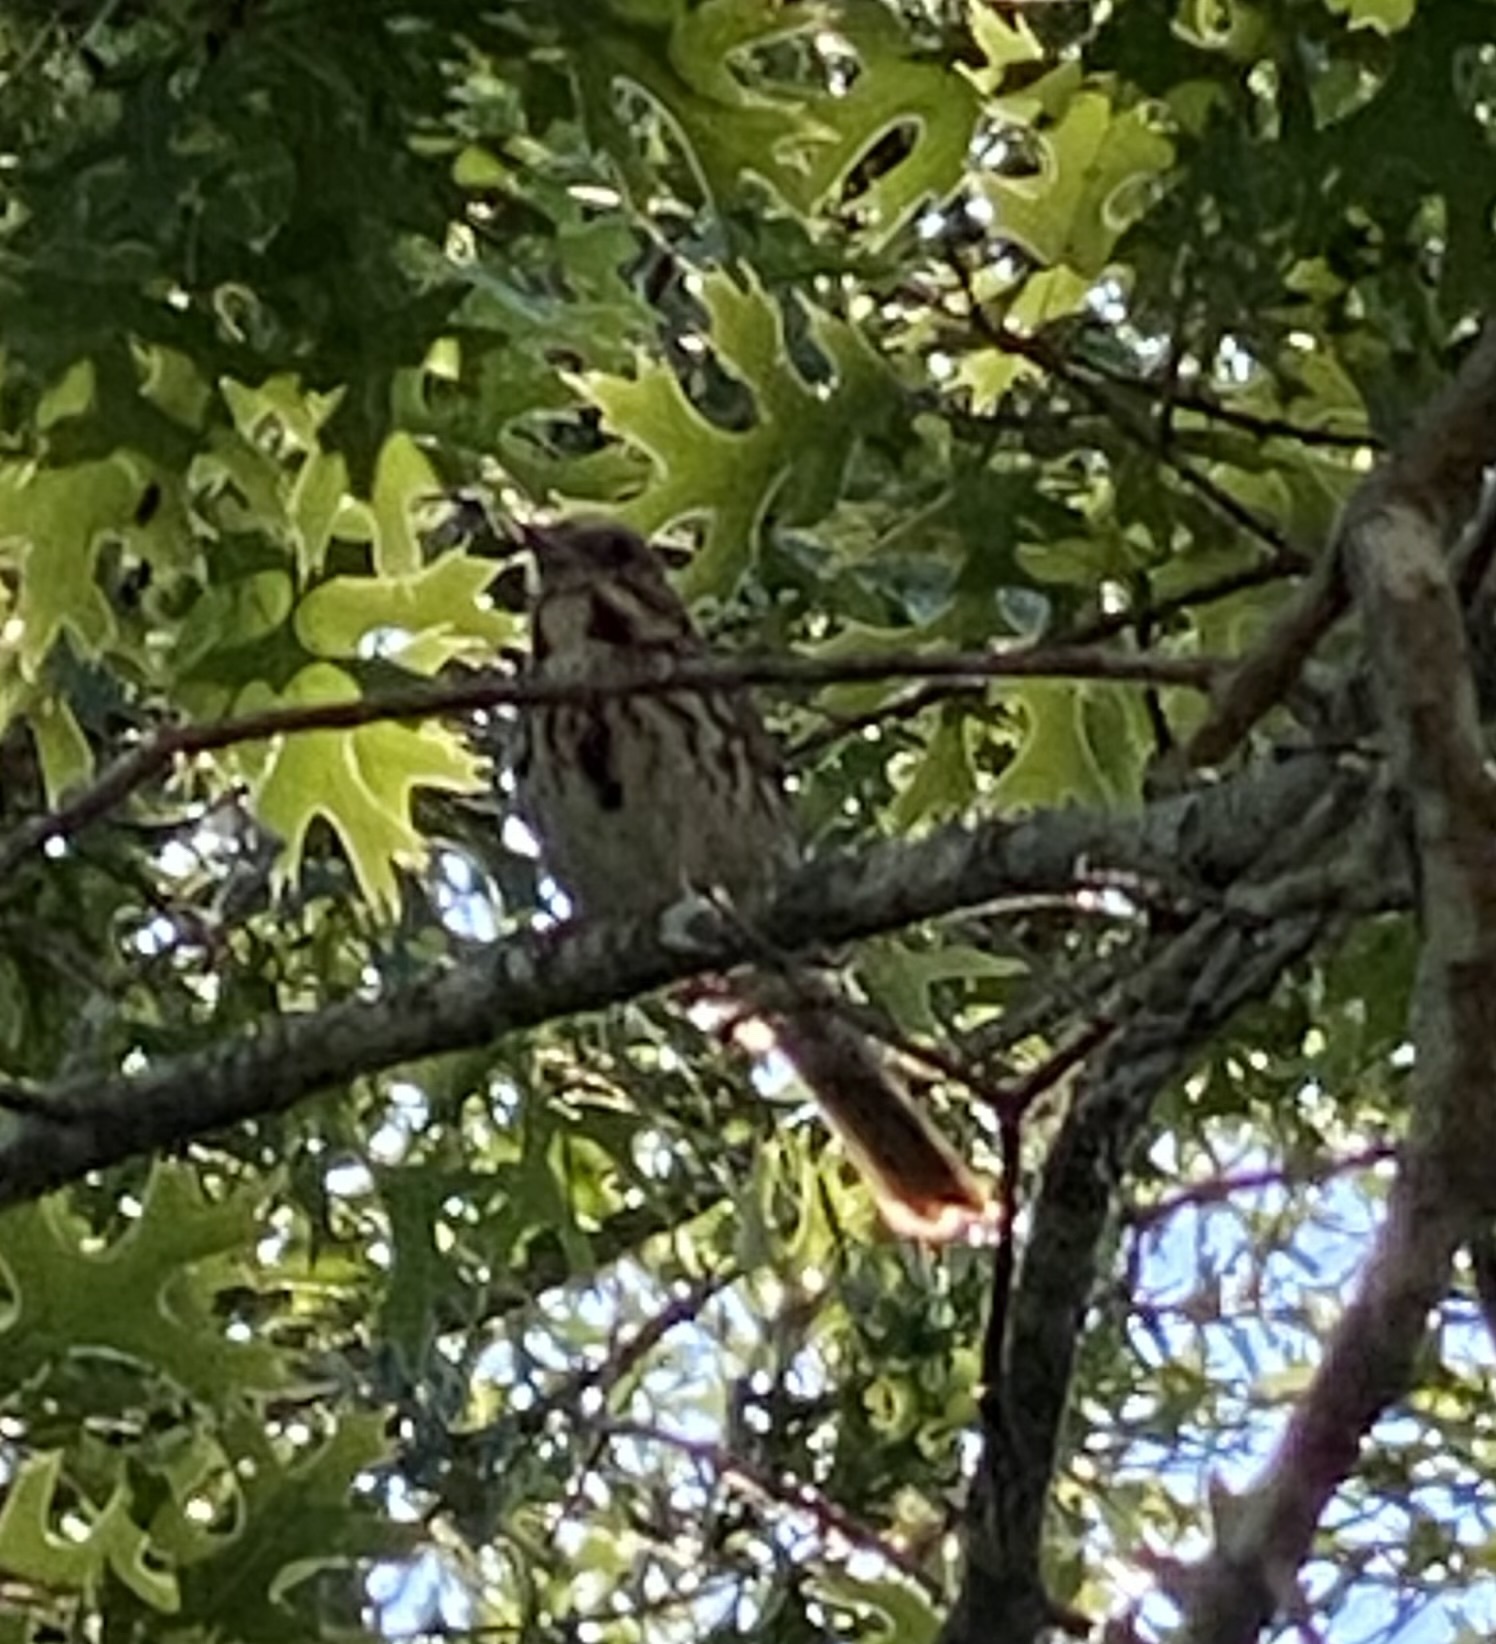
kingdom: Animalia
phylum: Chordata
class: Aves
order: Passeriformes
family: Passerellidae
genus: Melospiza
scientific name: Melospiza melodia
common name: Song sparrow
